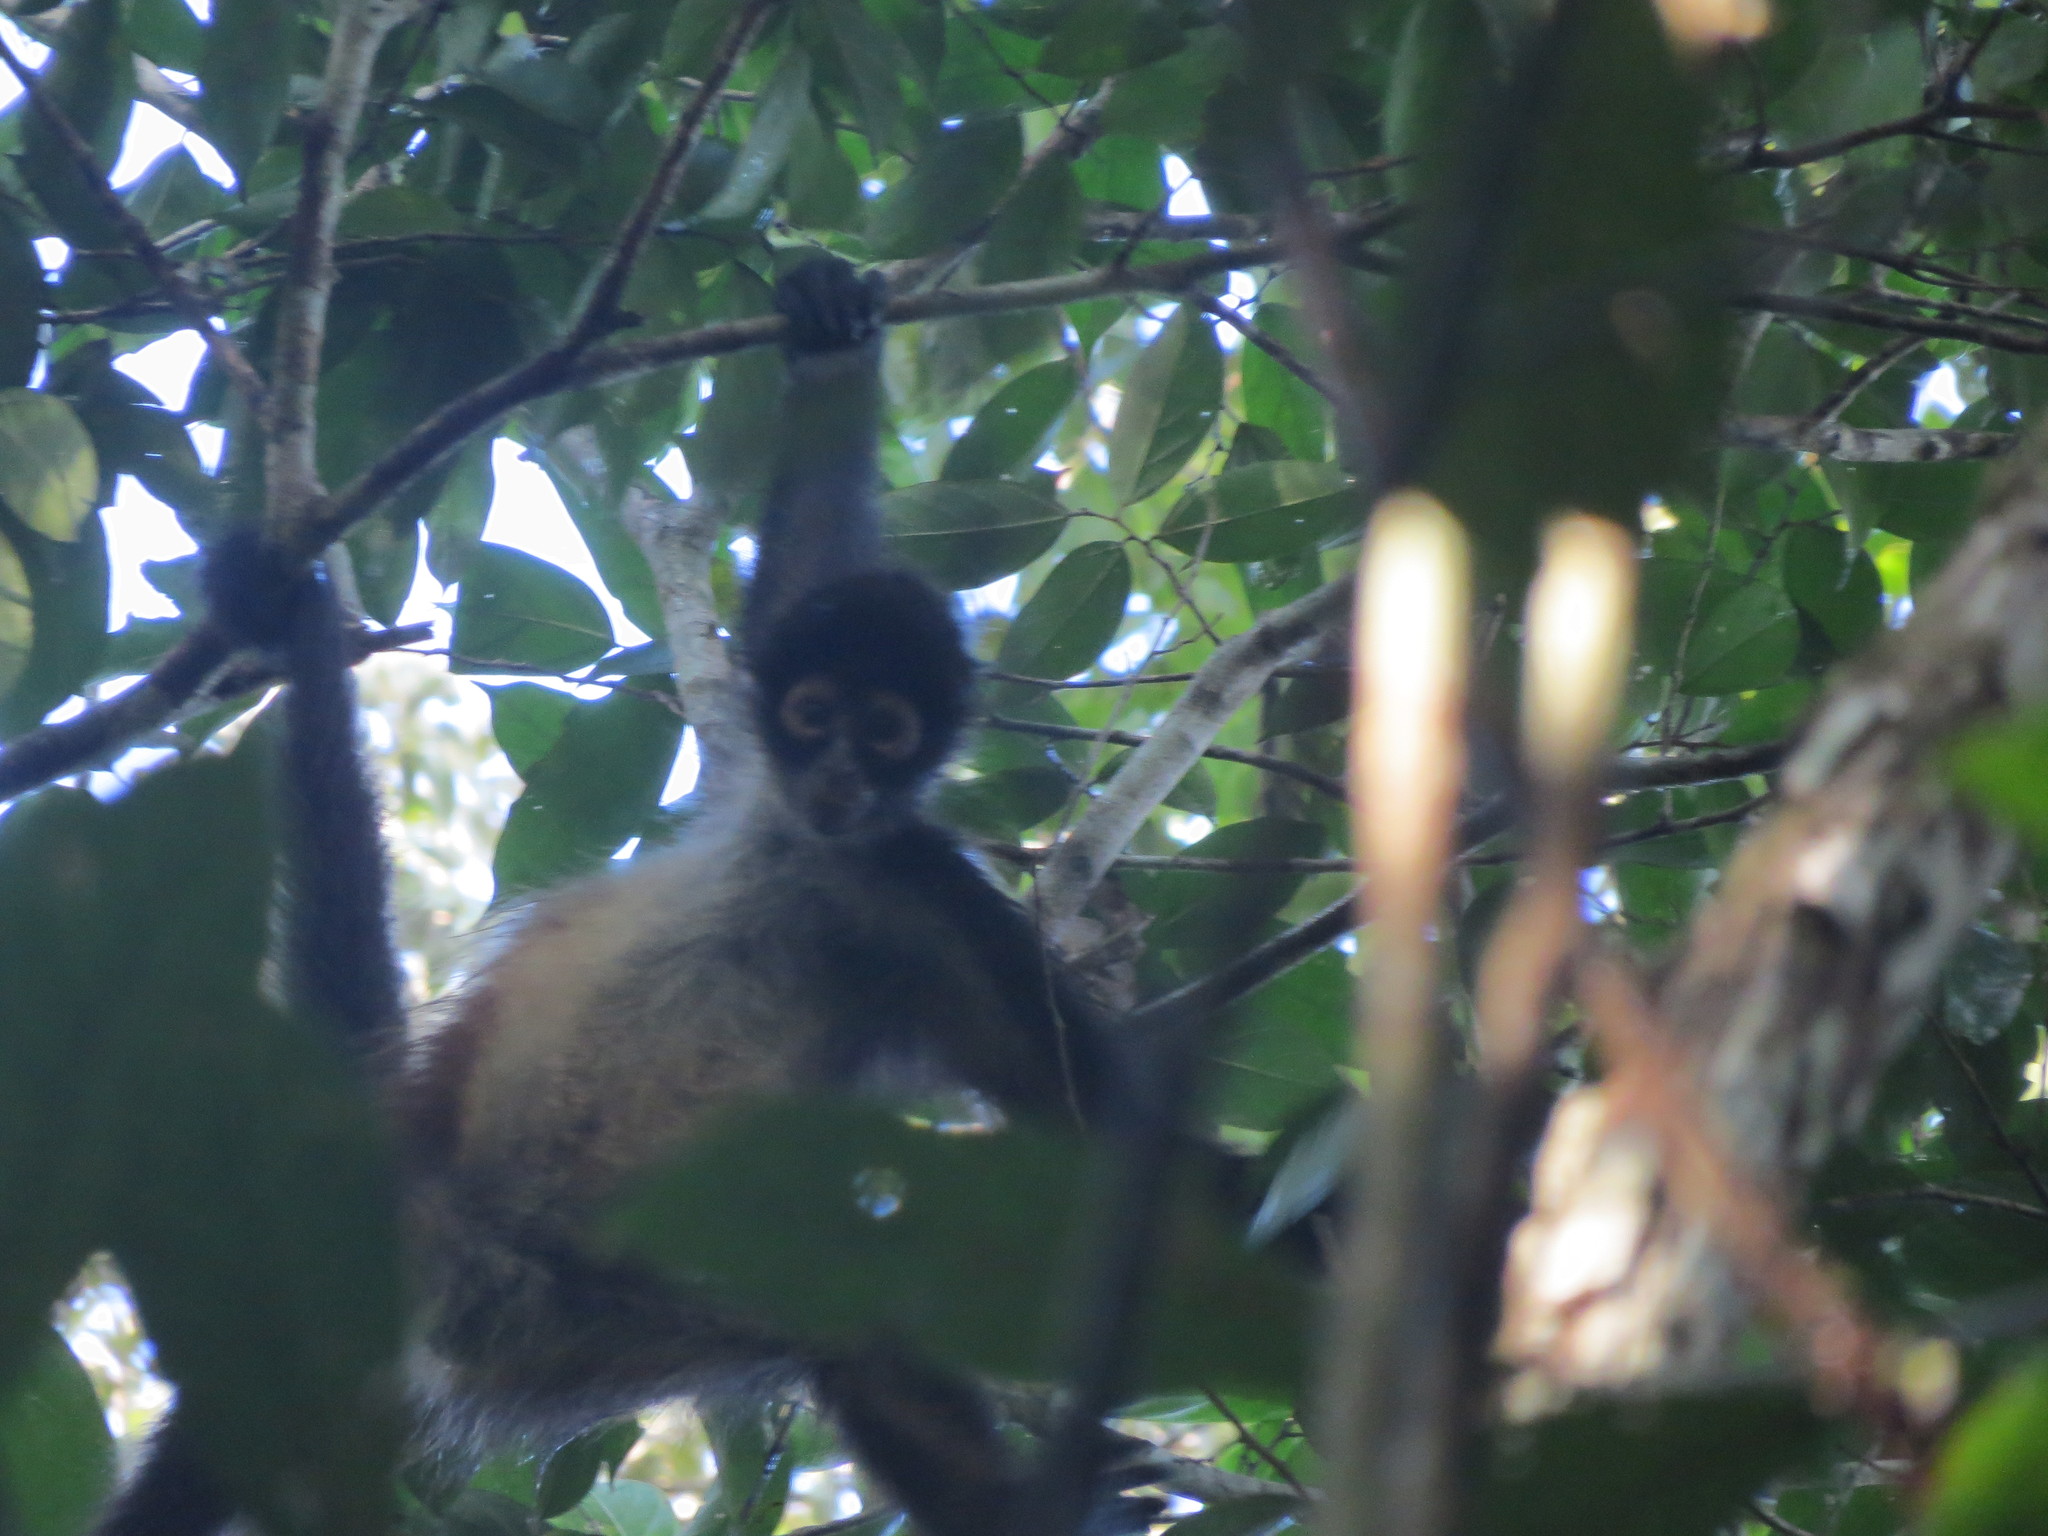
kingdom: Animalia
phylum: Chordata
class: Mammalia
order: Primates
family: Atelidae
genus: Ateles
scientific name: Ateles geoffroyi
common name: Black-handed spider monkey
